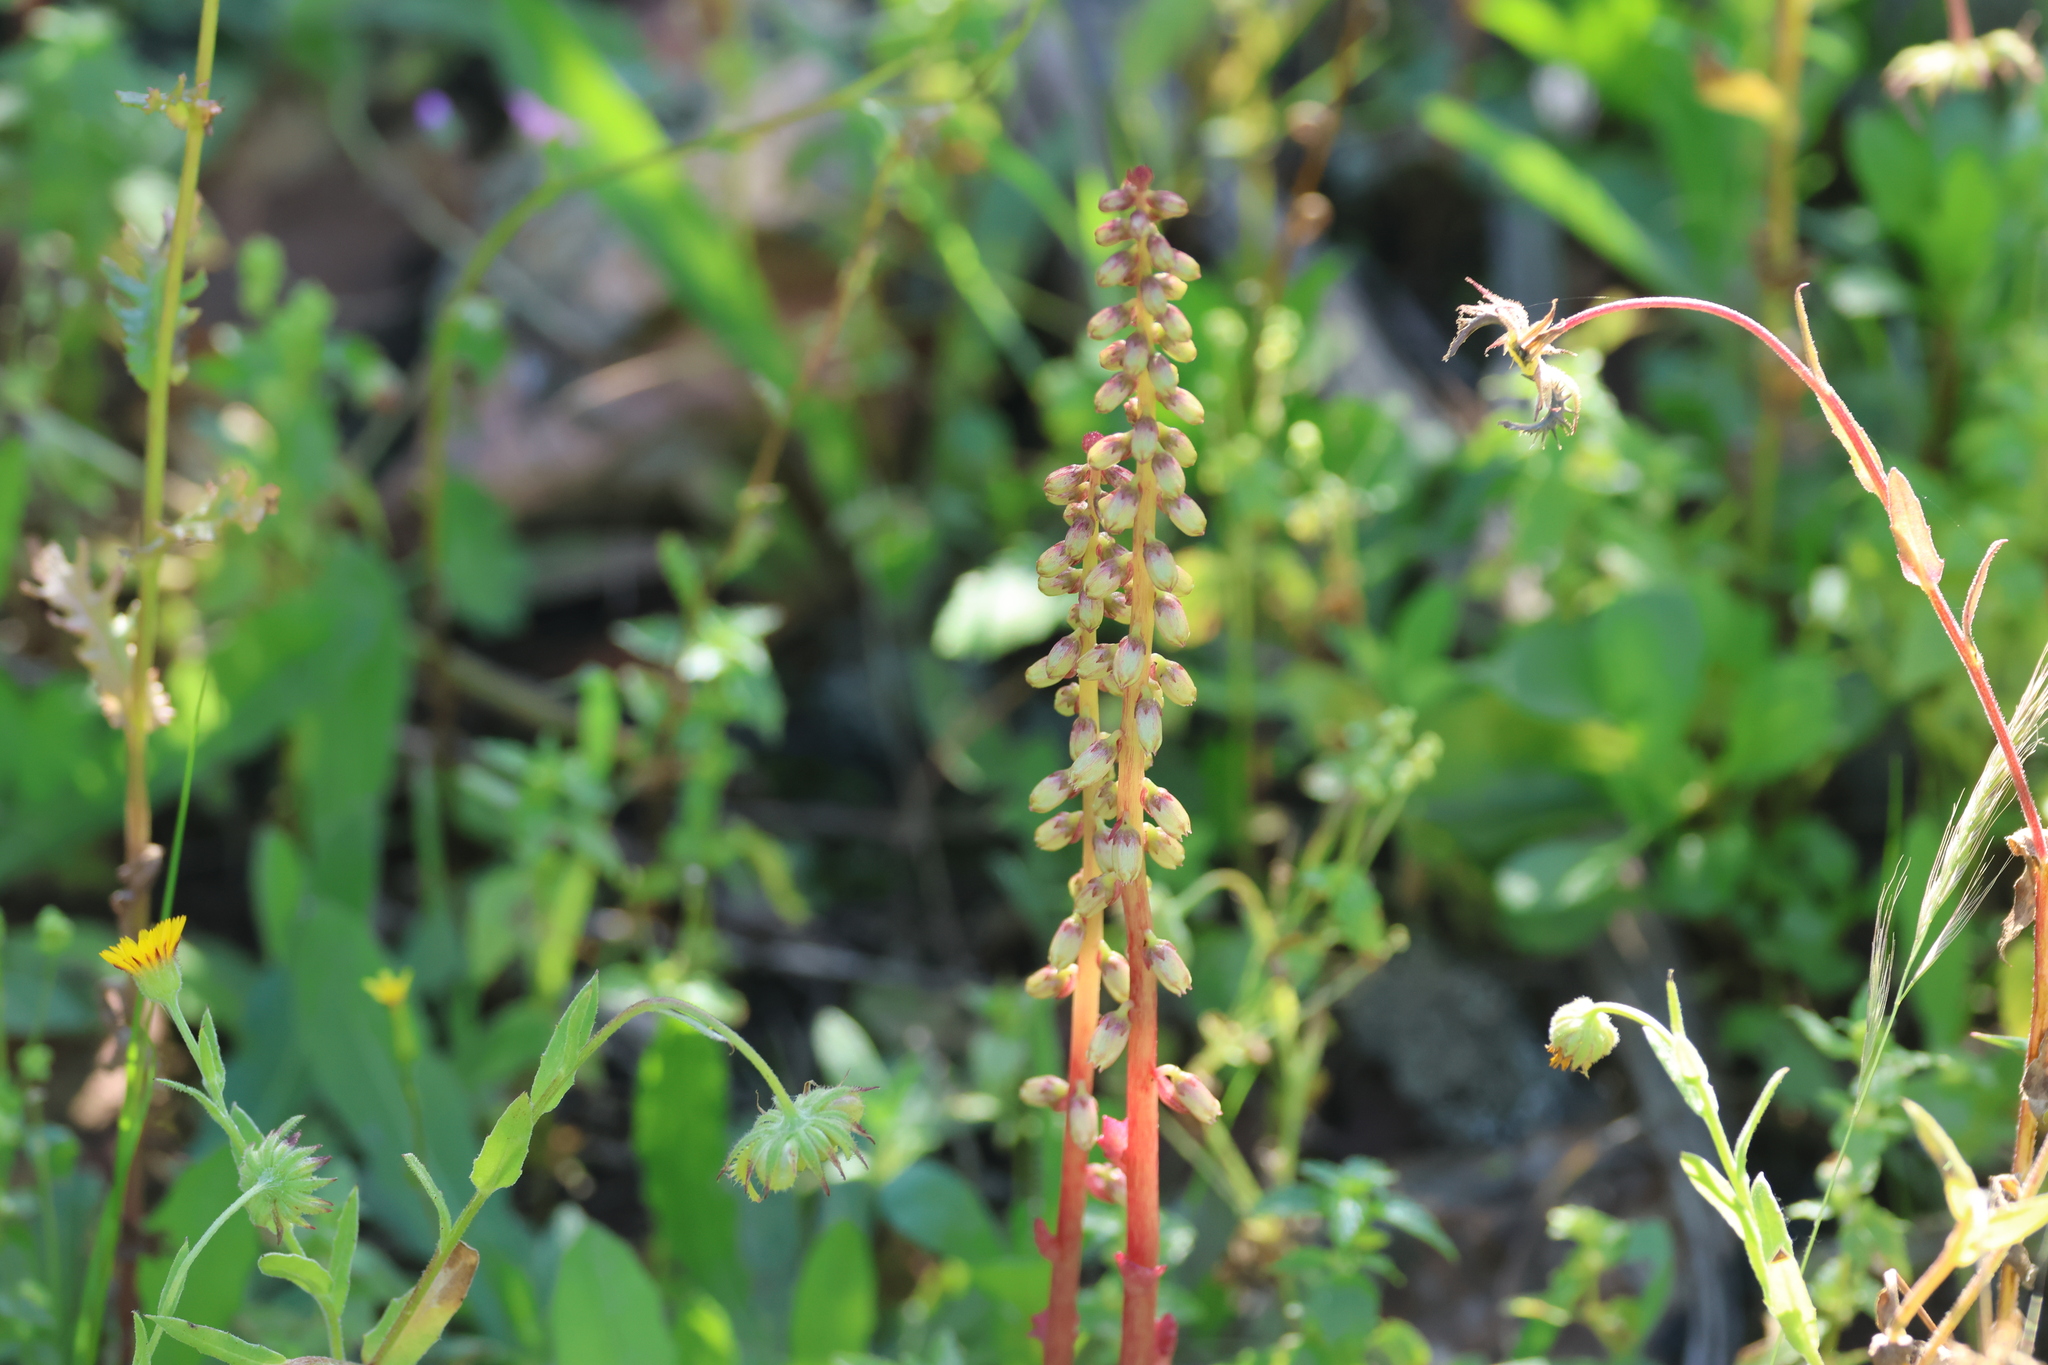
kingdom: Plantae
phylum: Tracheophyta
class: Magnoliopsida
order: Saxifragales
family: Crassulaceae
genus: Umbilicus
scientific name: Umbilicus rupestris
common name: Navelwort
